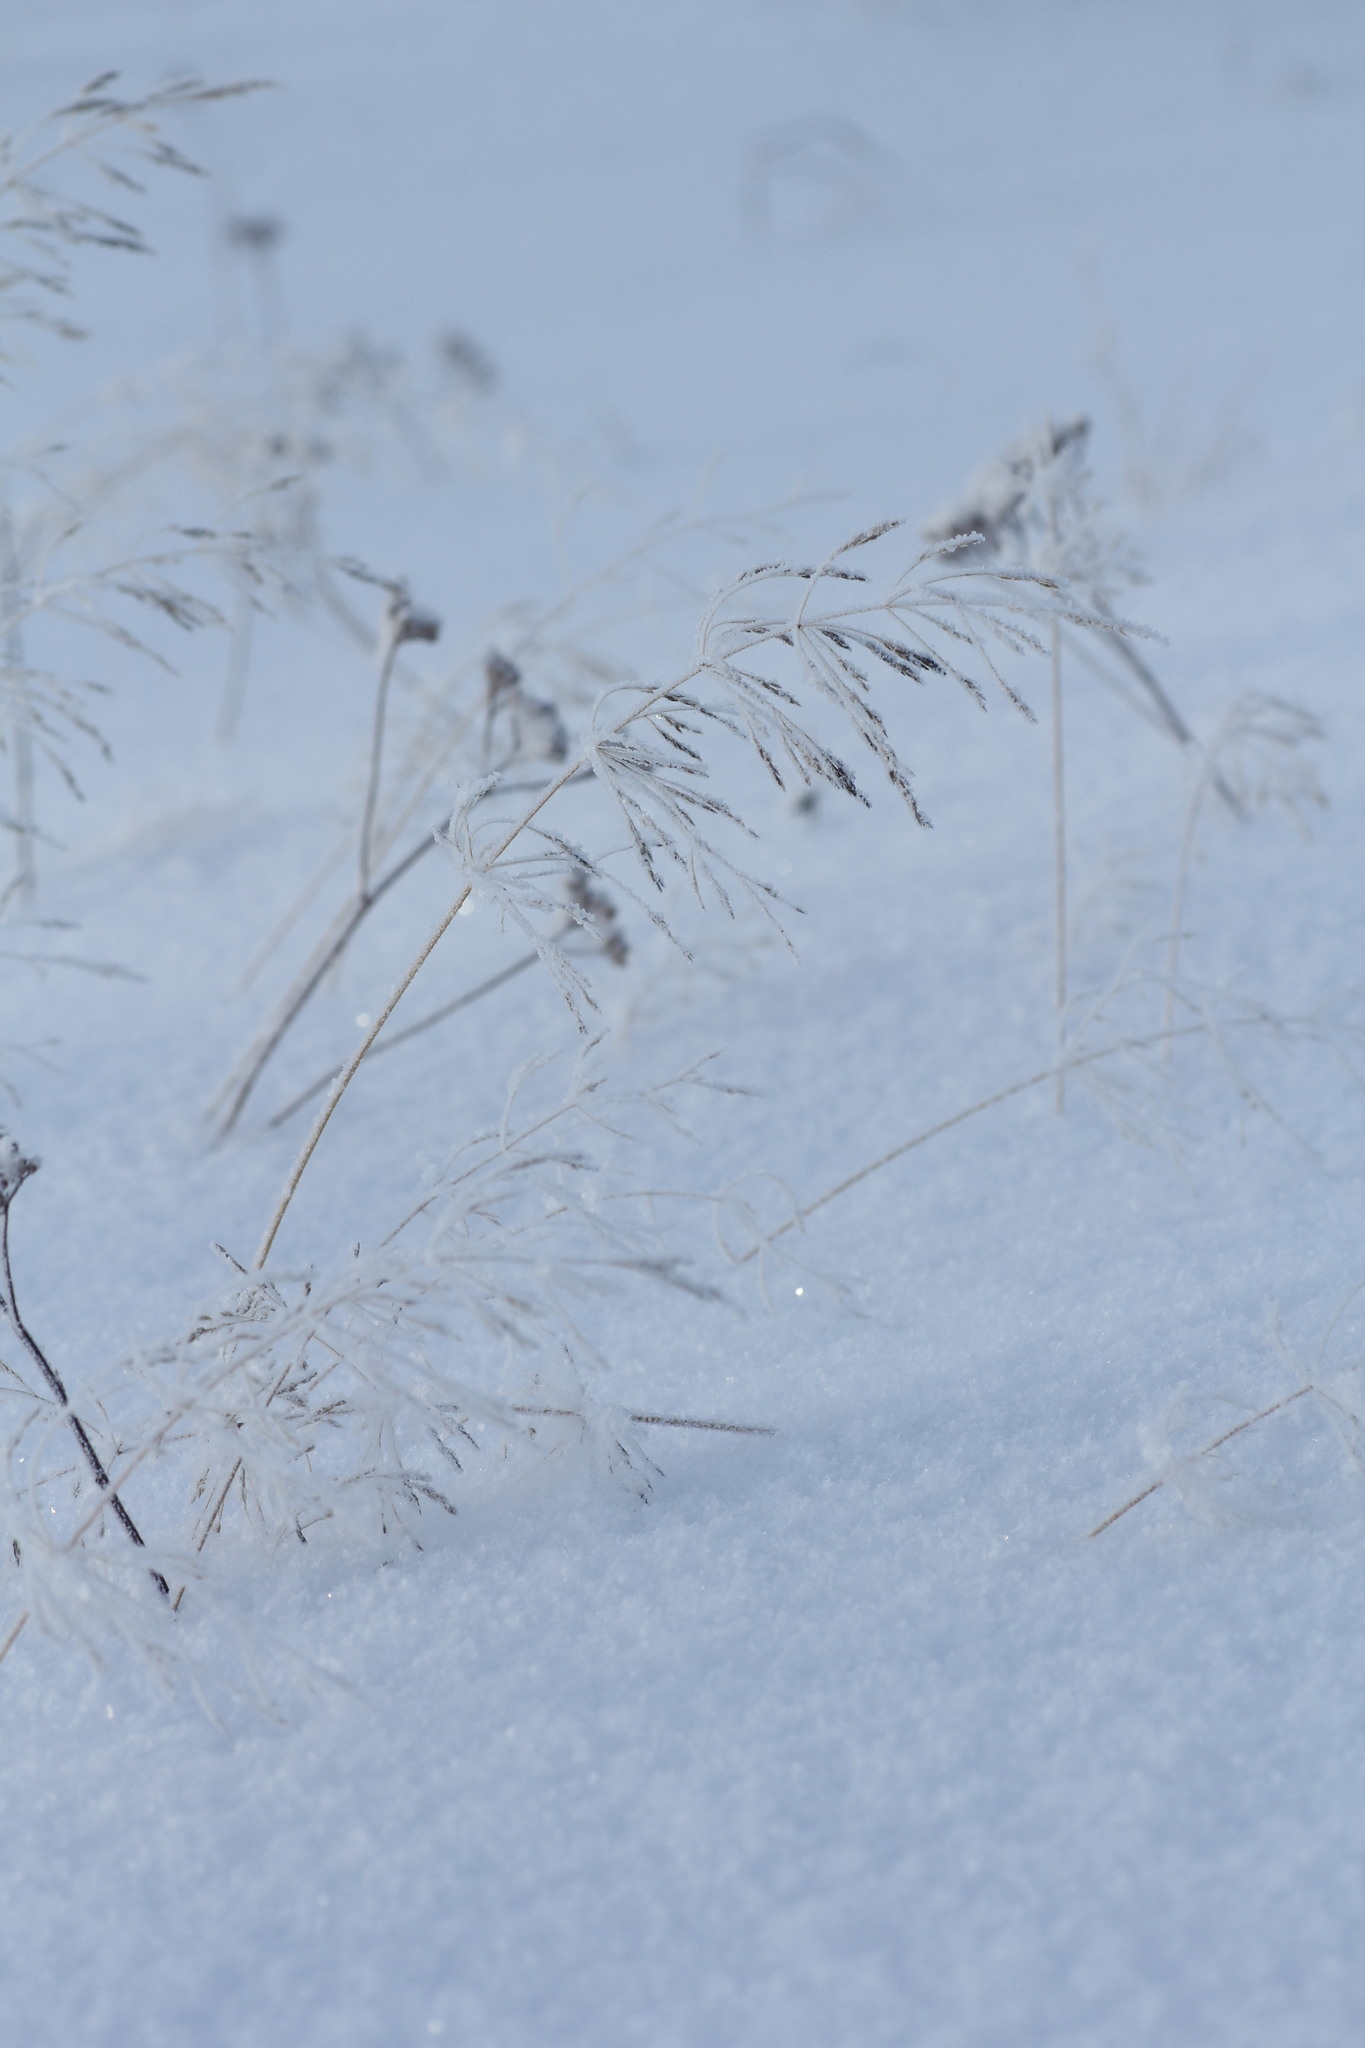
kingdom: Plantae
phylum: Tracheophyta
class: Liliopsida
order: Poales
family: Poaceae
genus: Agrostis
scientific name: Agrostis gigantea
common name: Black bent
